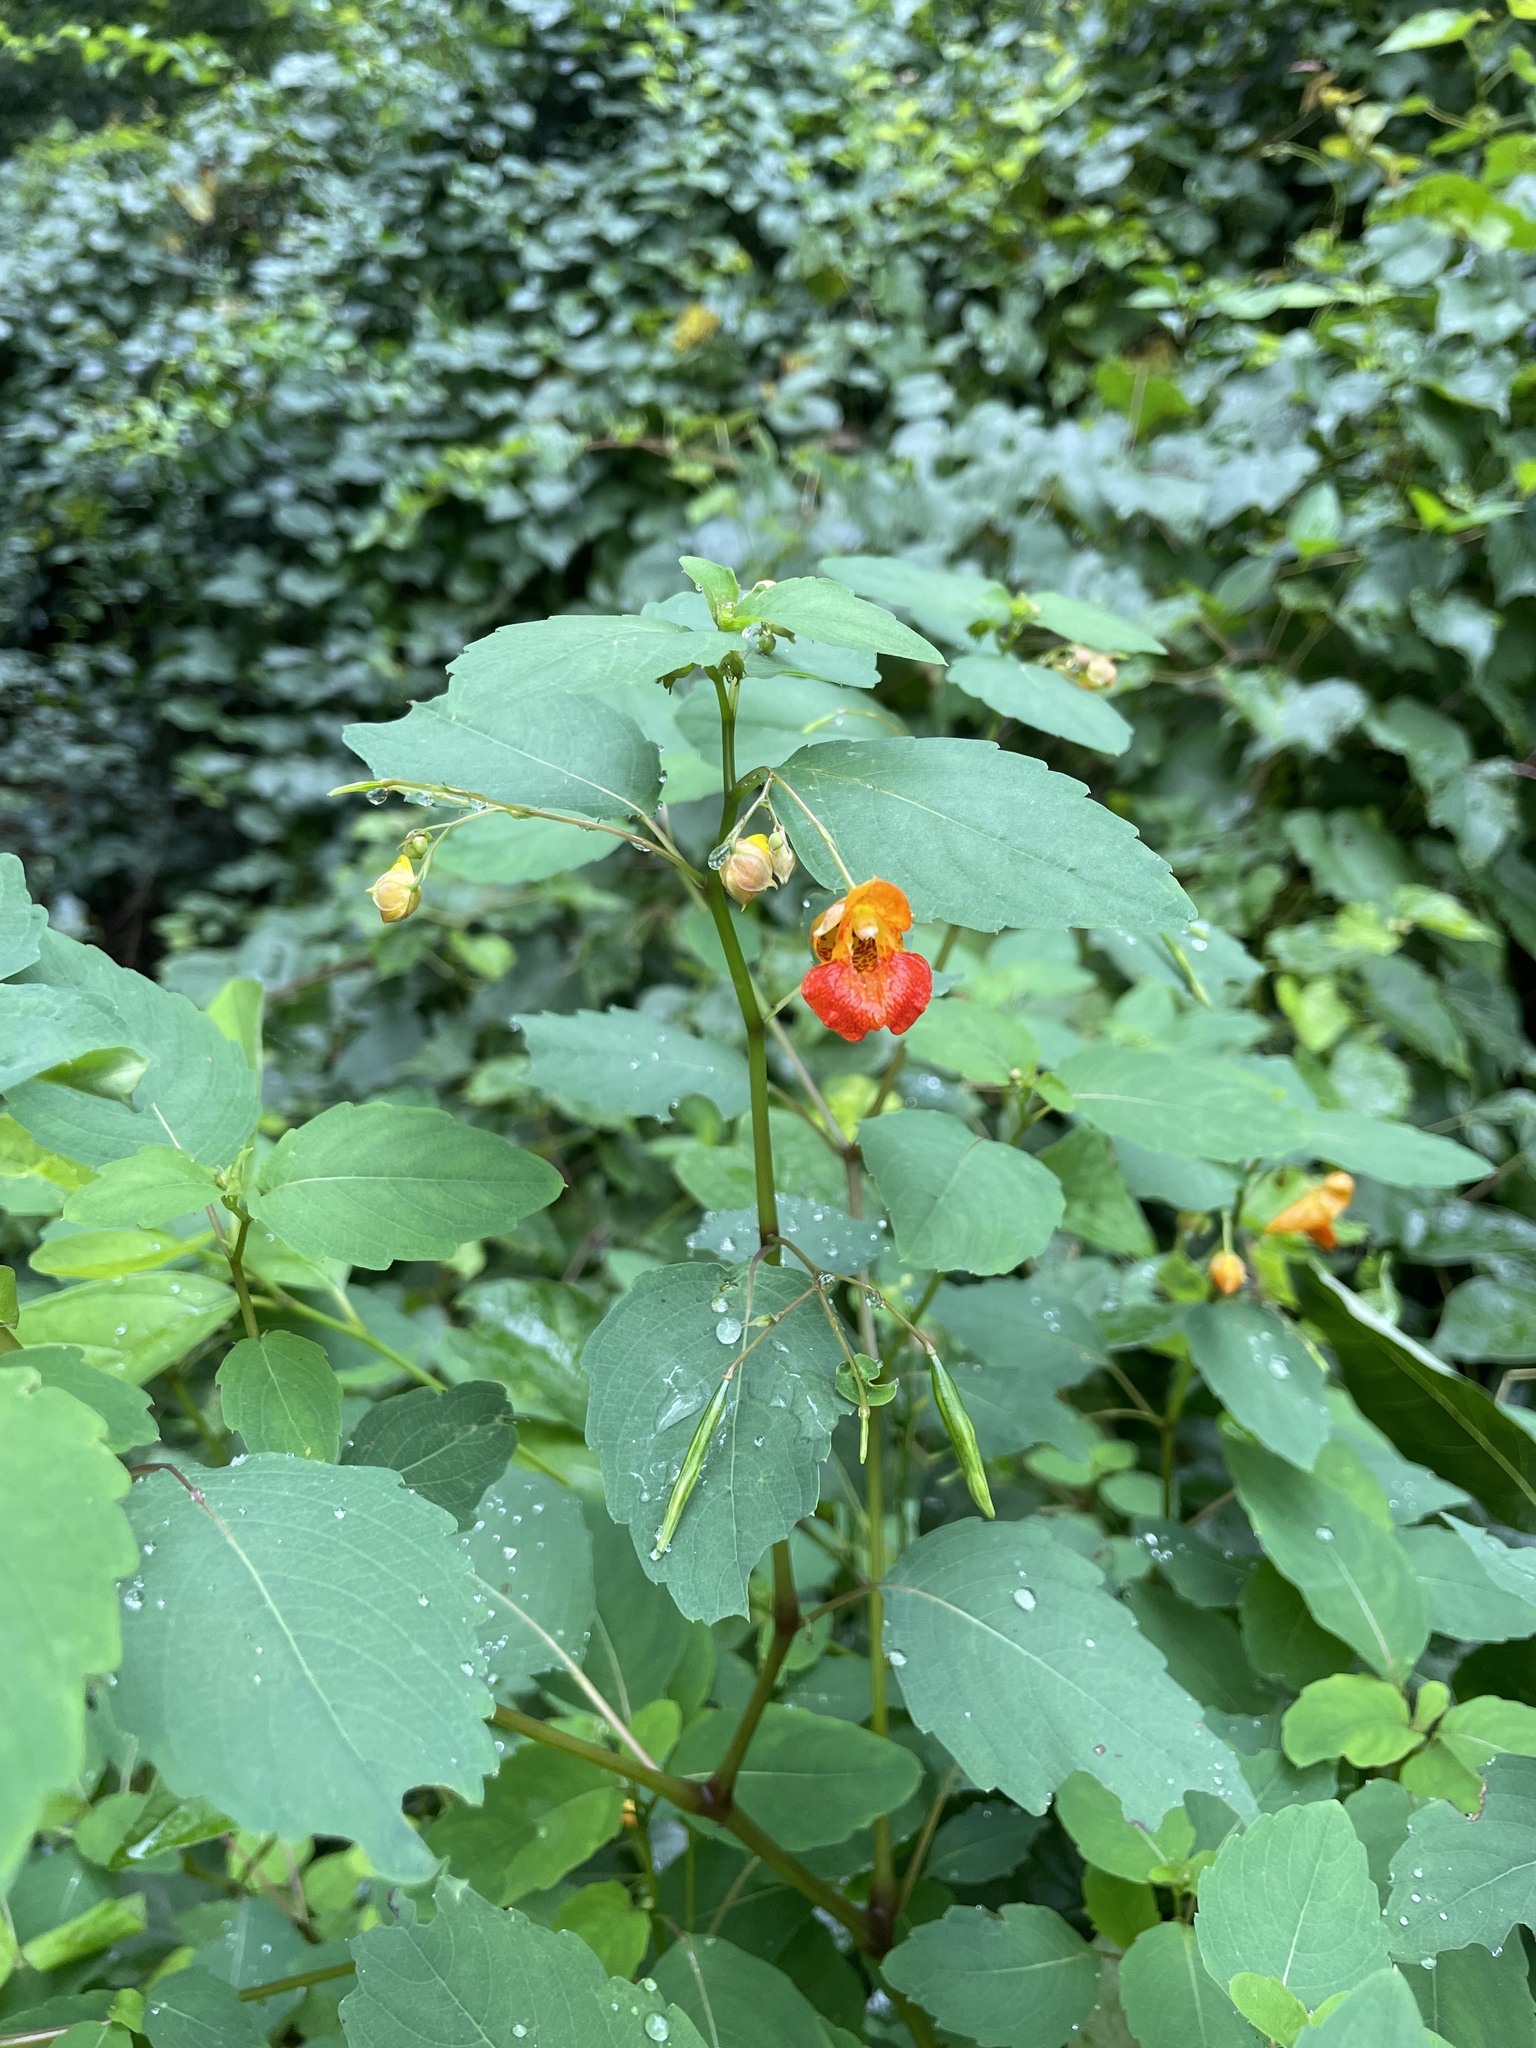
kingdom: Plantae
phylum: Tracheophyta
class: Magnoliopsida
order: Ericales
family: Balsaminaceae
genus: Impatiens
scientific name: Impatiens capensis
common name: Orange balsam
